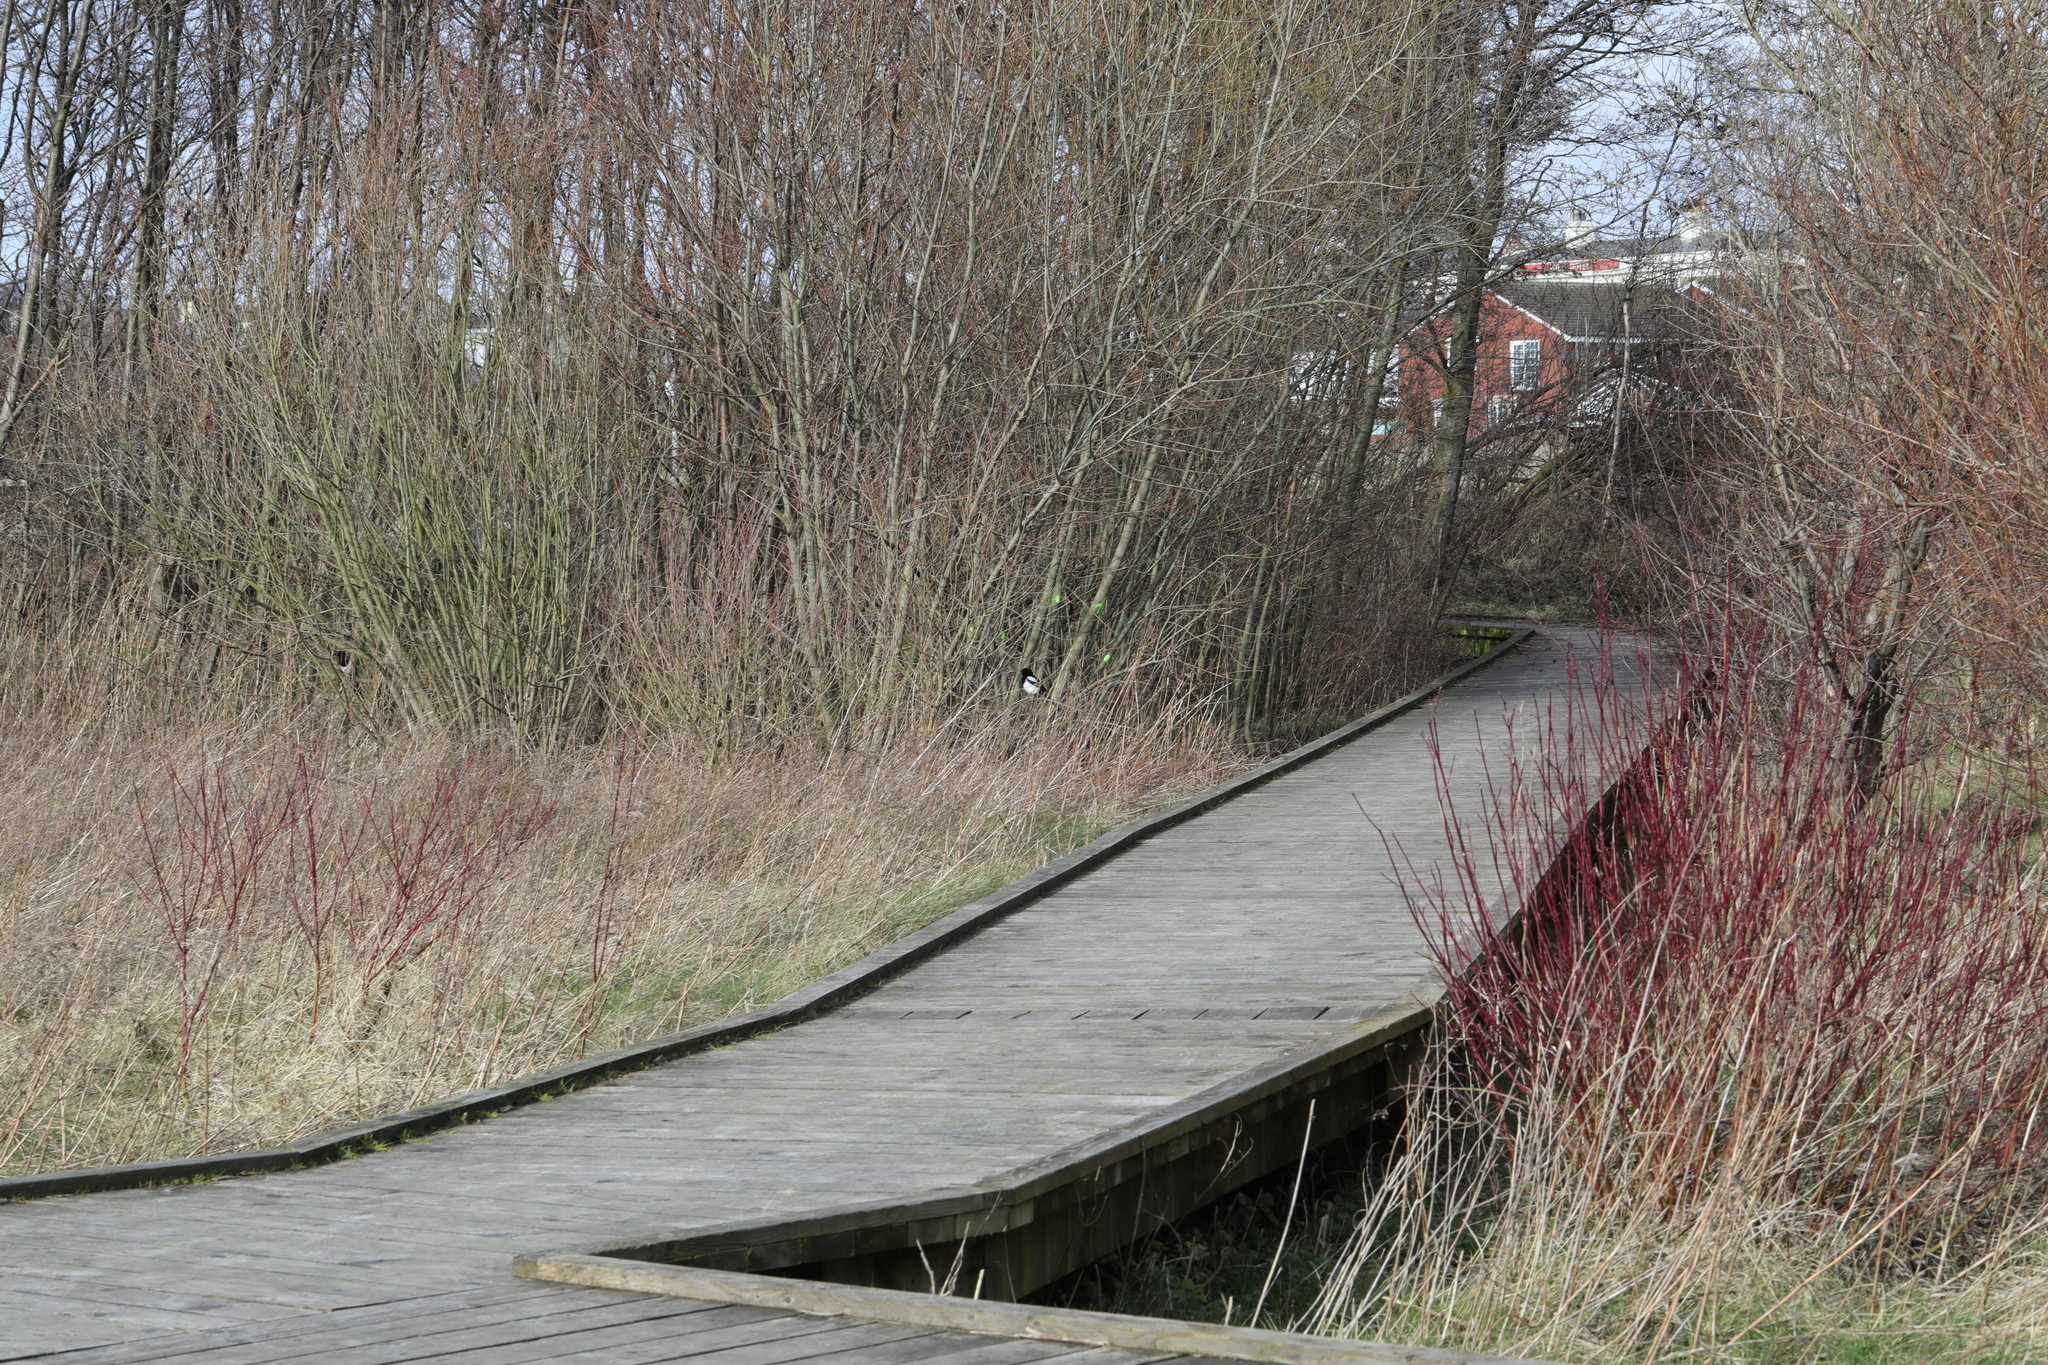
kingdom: Animalia
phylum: Chordata
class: Aves
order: Passeriformes
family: Corvidae
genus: Pica
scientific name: Pica pica
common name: Eurasian magpie
